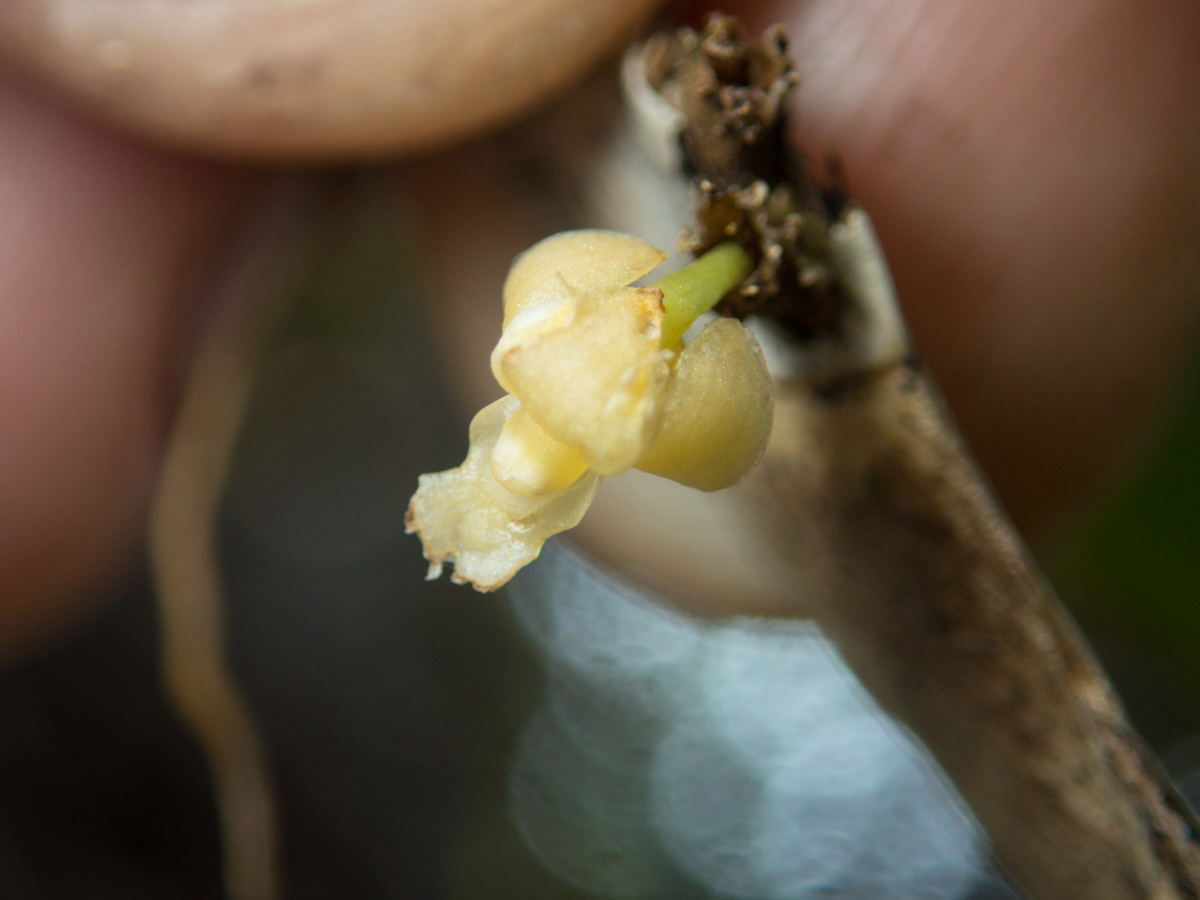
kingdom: Plantae
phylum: Tracheophyta
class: Liliopsida
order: Asparagales
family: Orchidaceae
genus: Dendrobium
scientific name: Dendrobium aloifolium
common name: Aloe-like dendrobium
